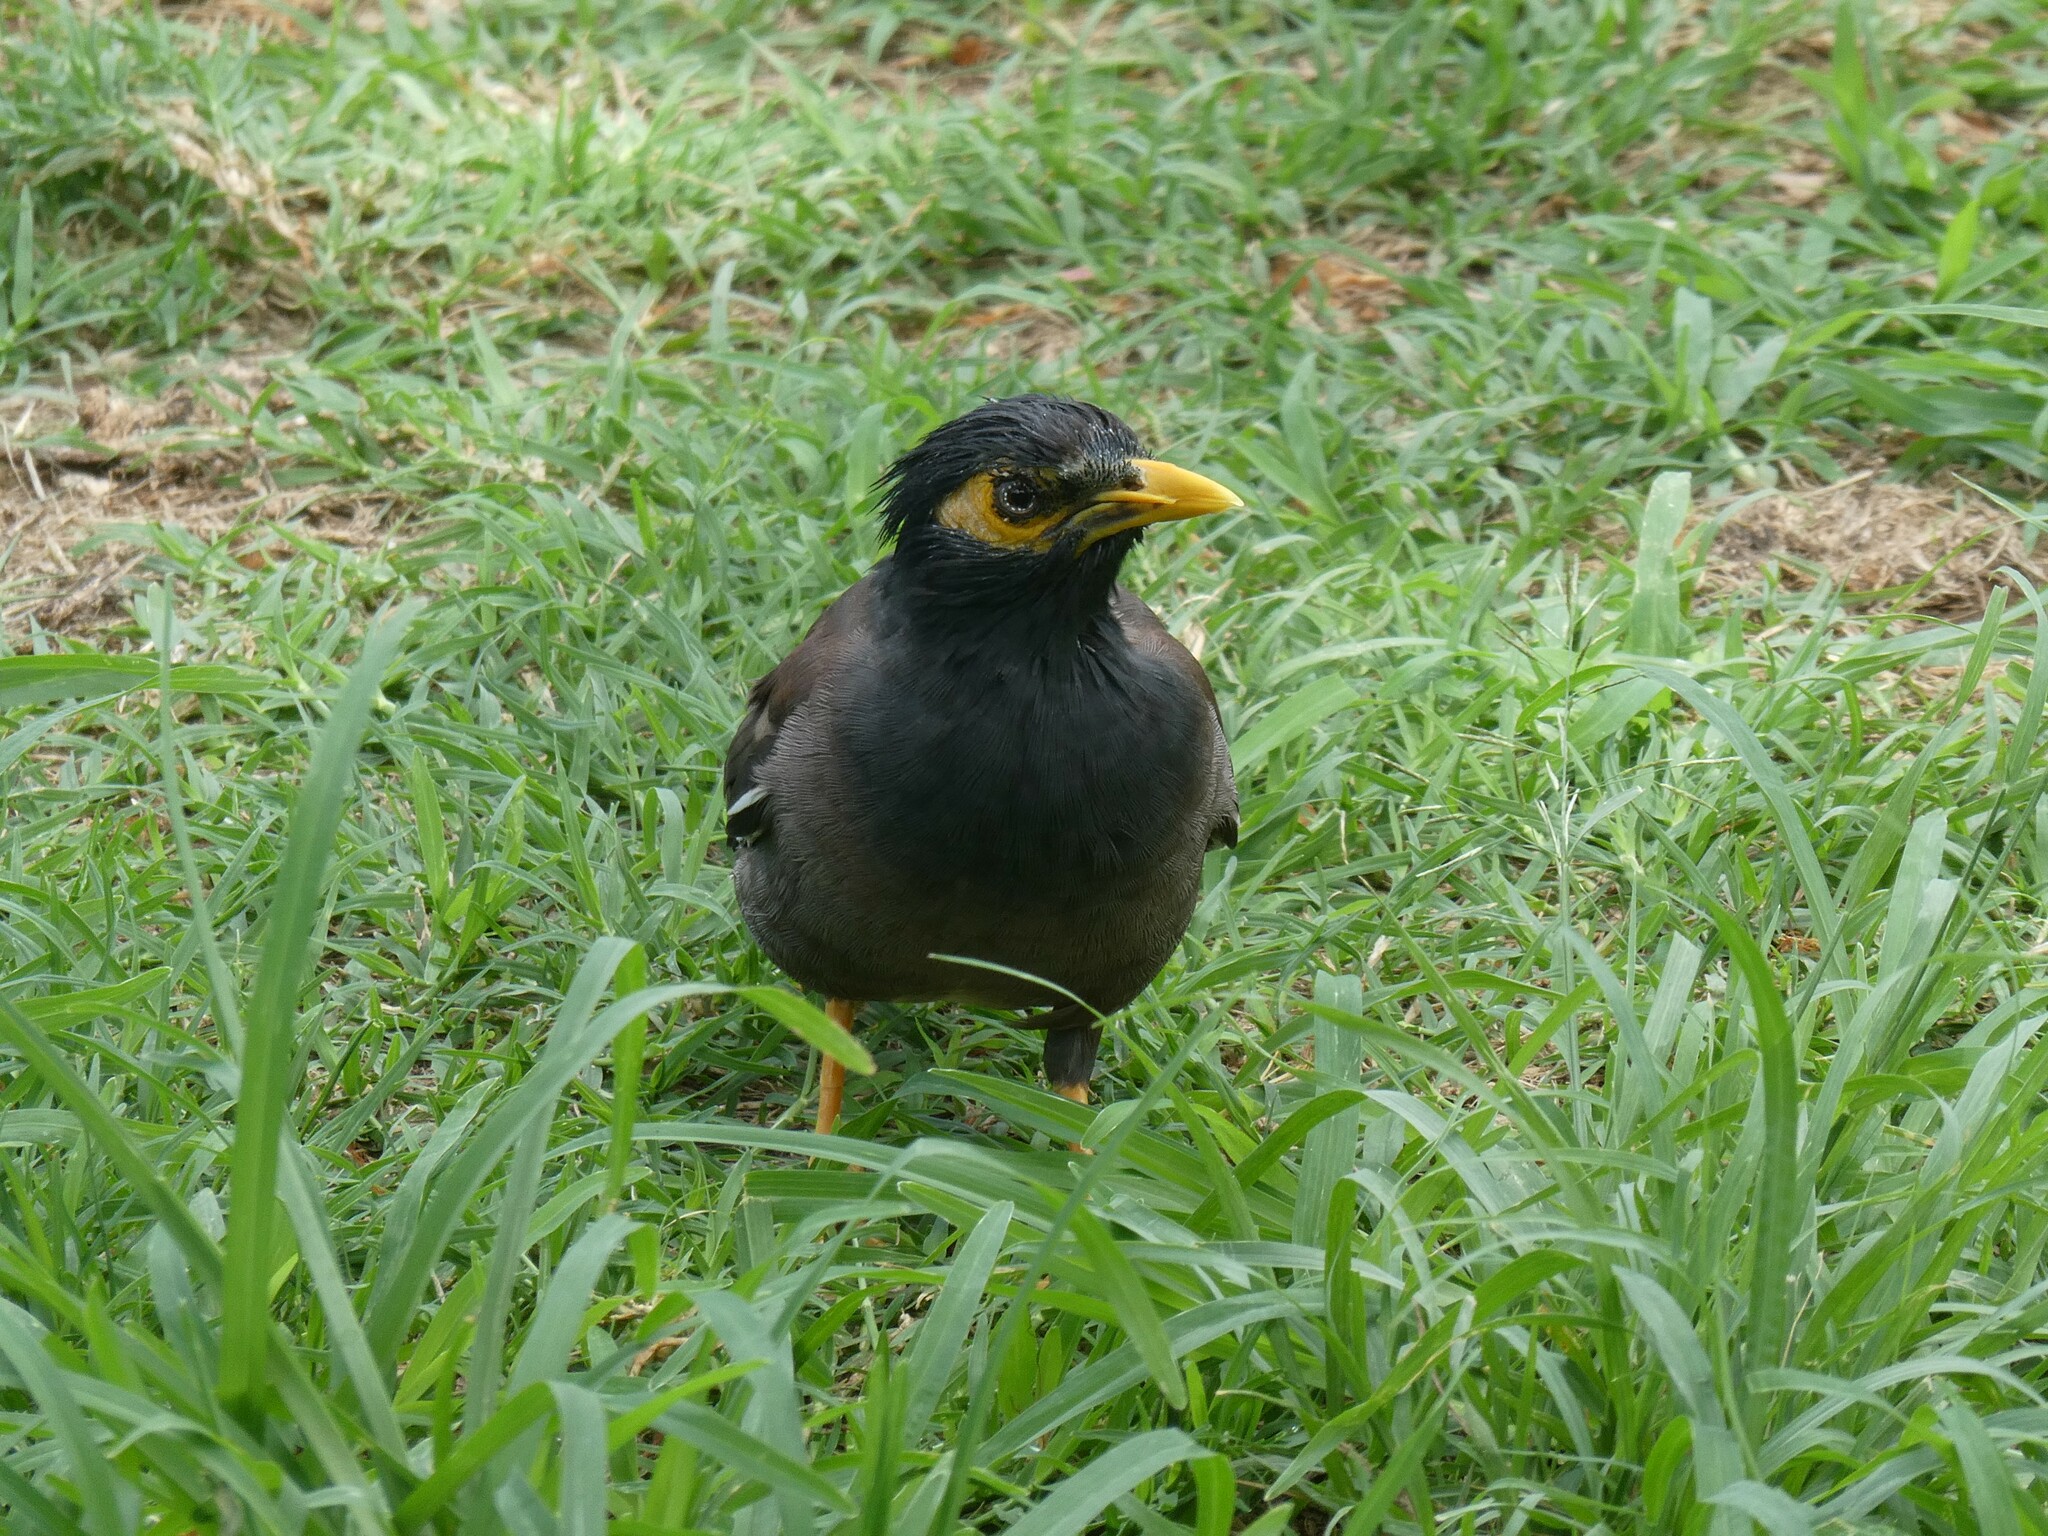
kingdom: Animalia
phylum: Chordata
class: Aves
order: Passeriformes
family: Sturnidae
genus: Acridotheres
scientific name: Acridotheres tristis
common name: Common myna
